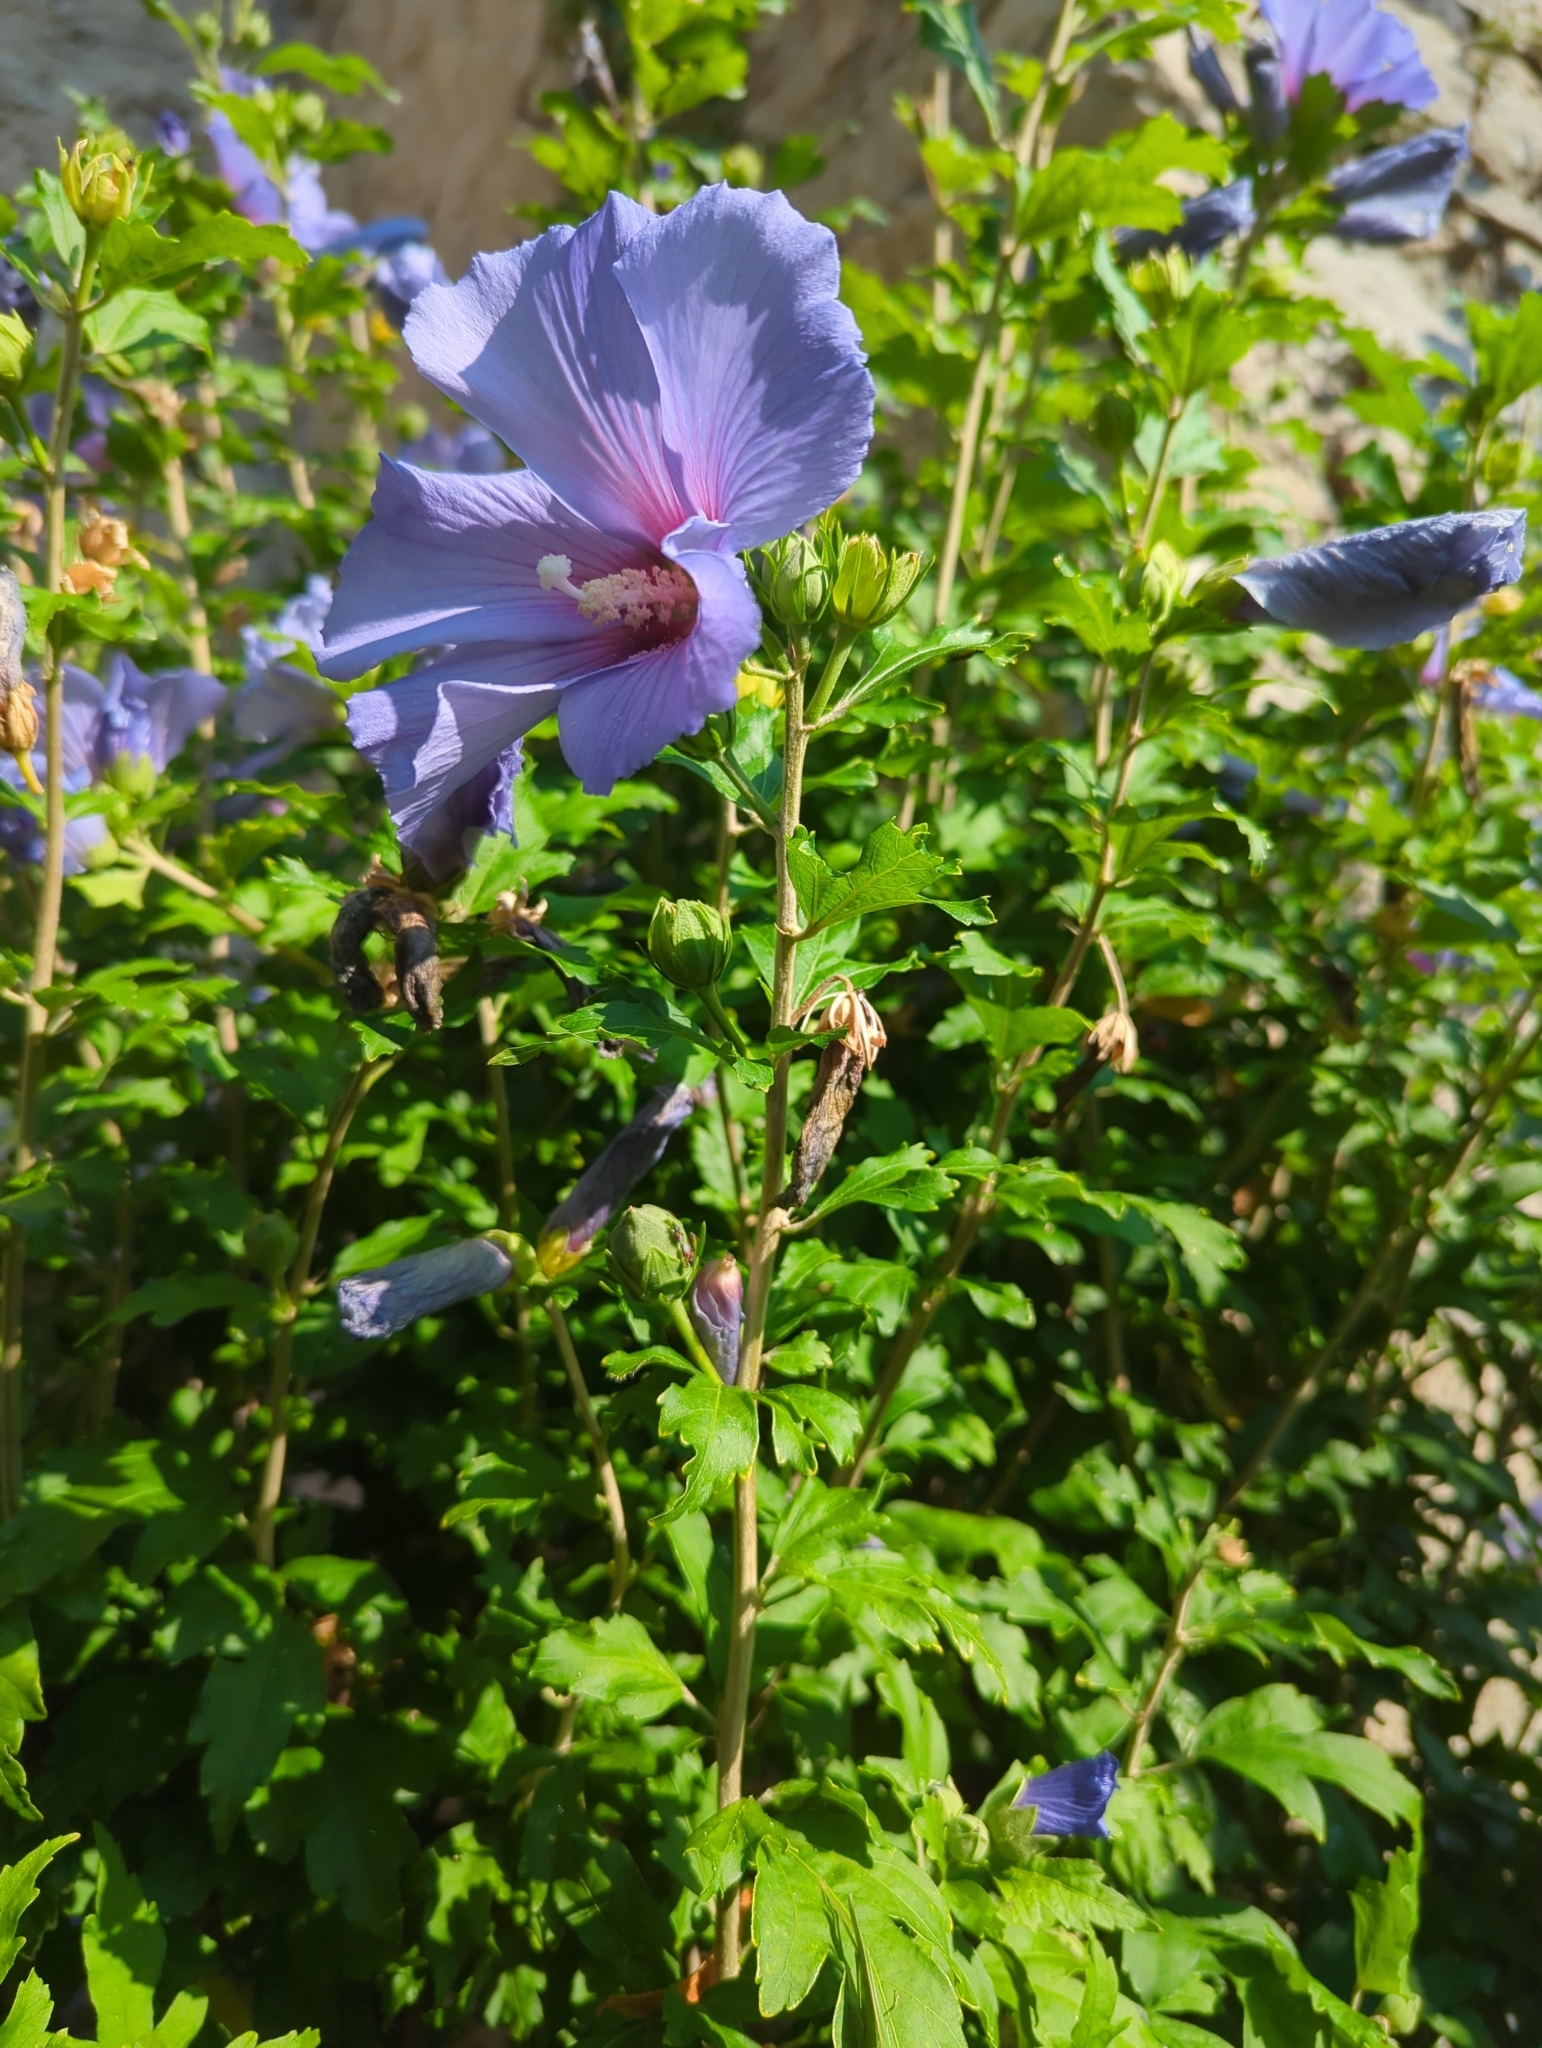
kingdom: Animalia
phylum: Arthropoda
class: Insecta
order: Hemiptera
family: Oxycarenidae
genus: Oxycarenus
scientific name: Oxycarenus lavaterae
